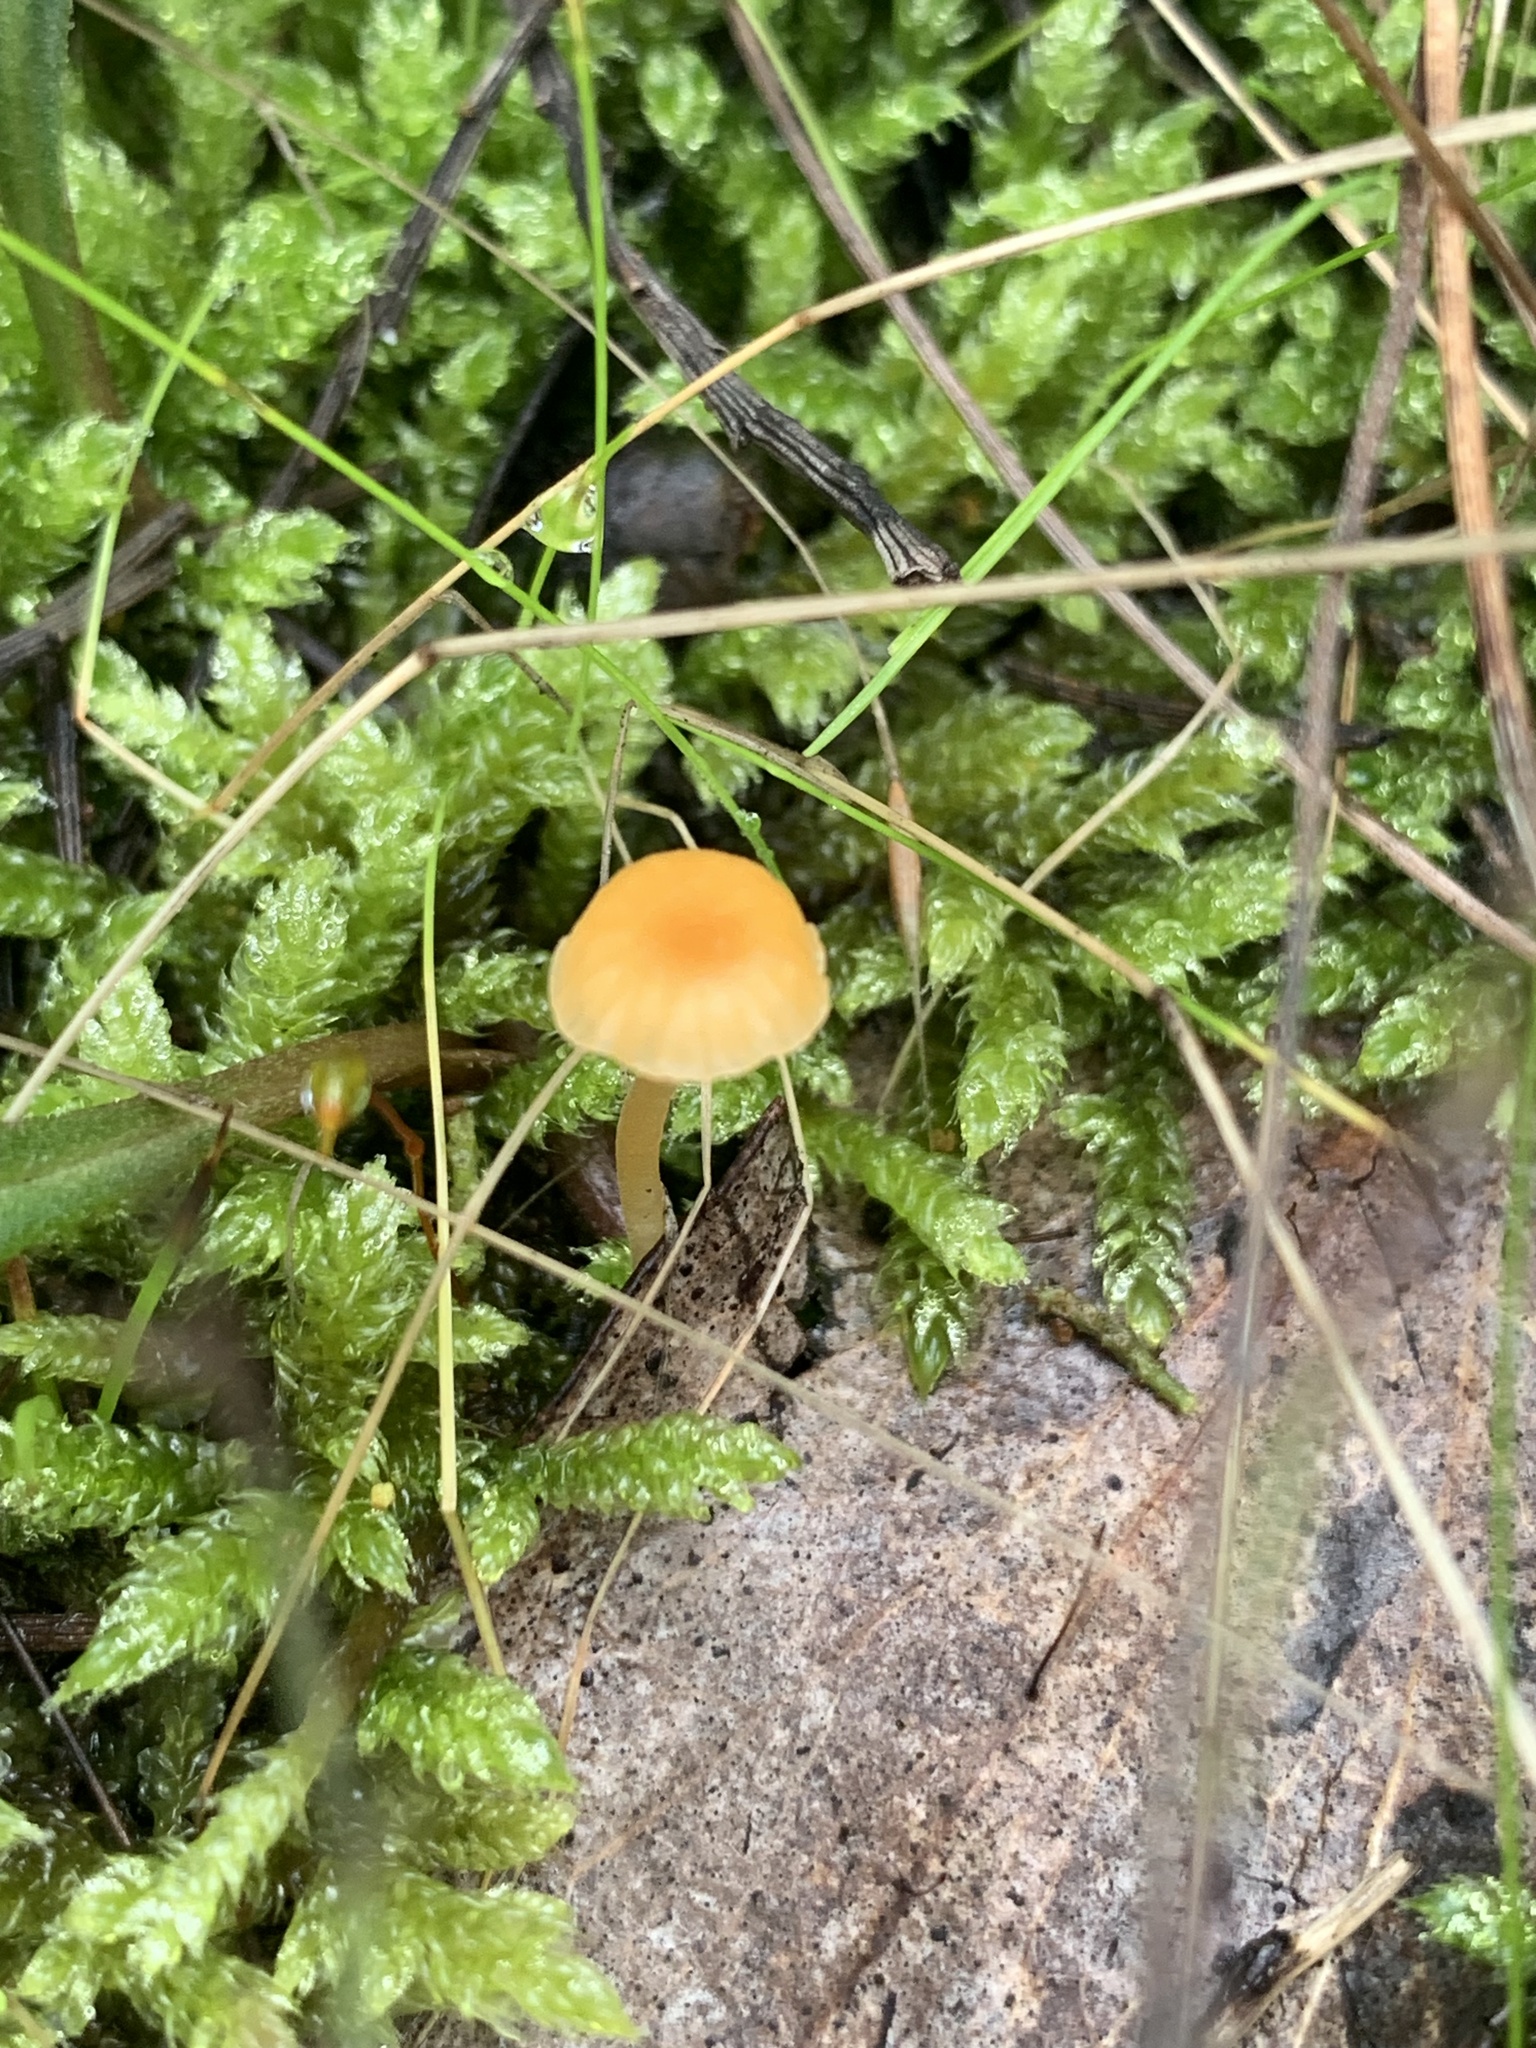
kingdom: Fungi
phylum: Basidiomycota
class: Agaricomycetes
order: Hymenochaetales
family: Rickenellaceae
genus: Rickenella
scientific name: Rickenella fibula
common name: Orange mosscap
